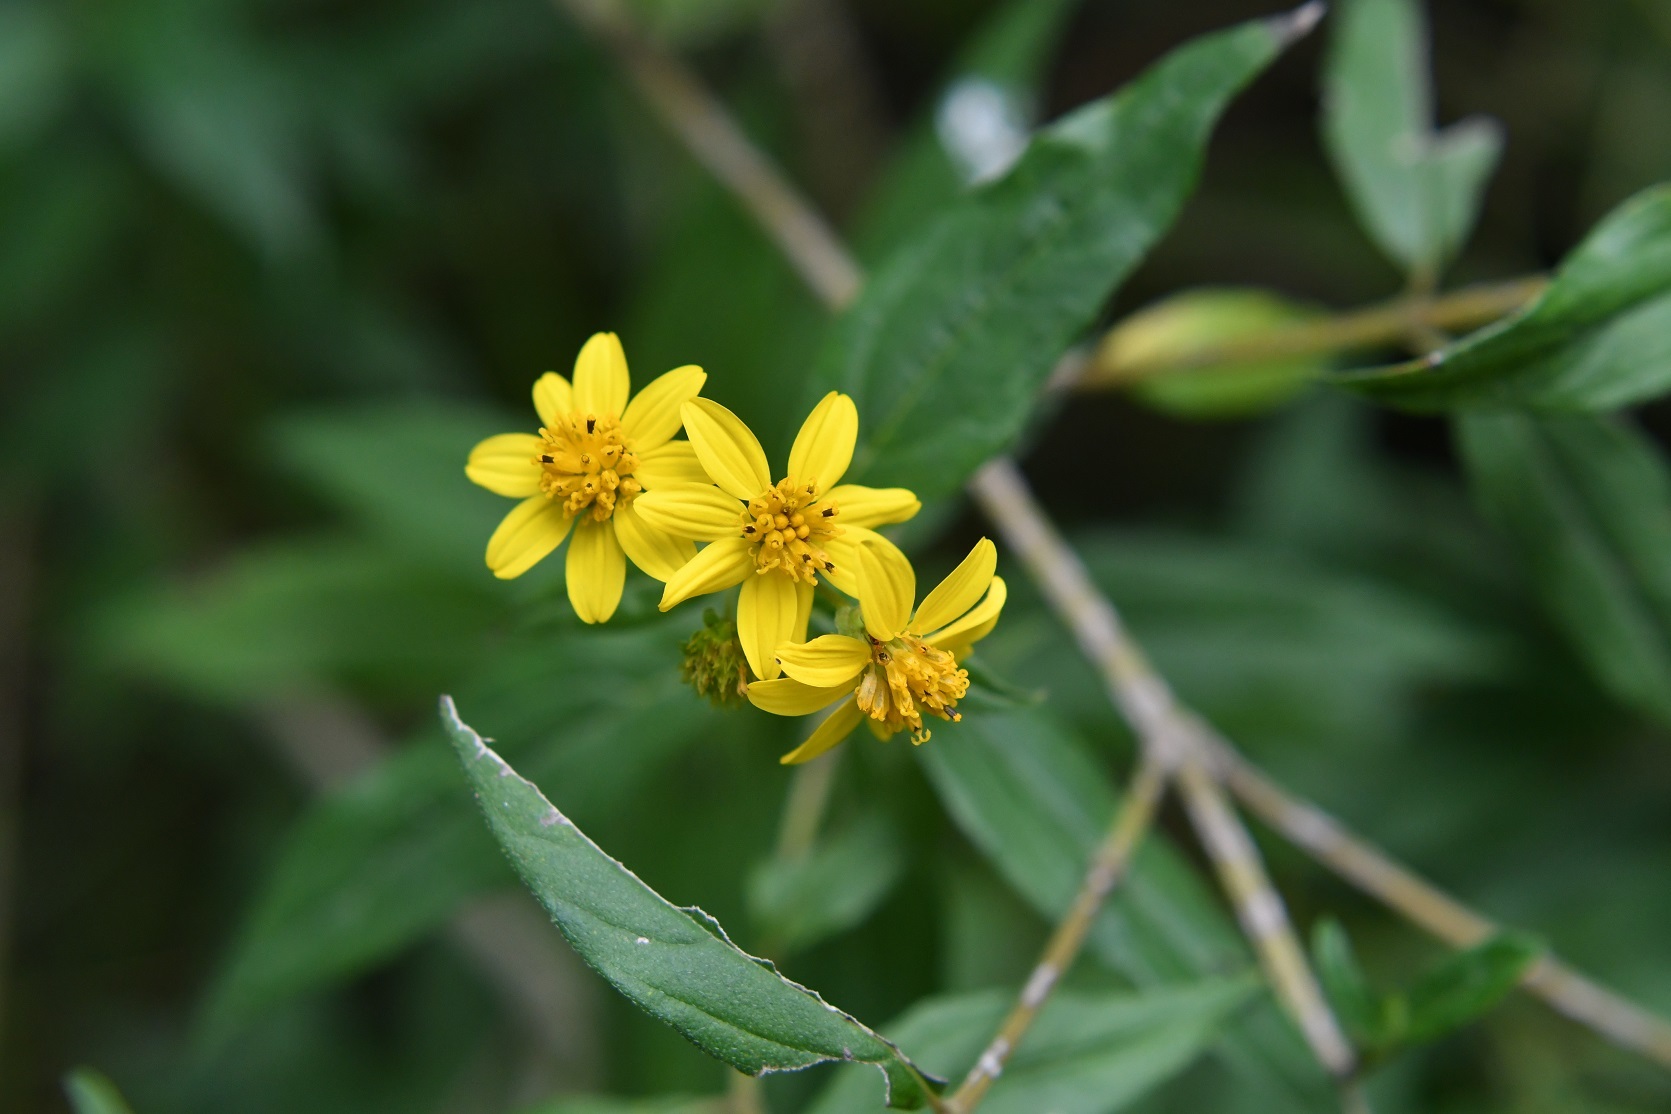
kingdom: Plantae
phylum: Tracheophyta
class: Magnoliopsida
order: Asterales
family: Asteraceae
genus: Perymenium
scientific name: Perymenium ghiesbreghtii
